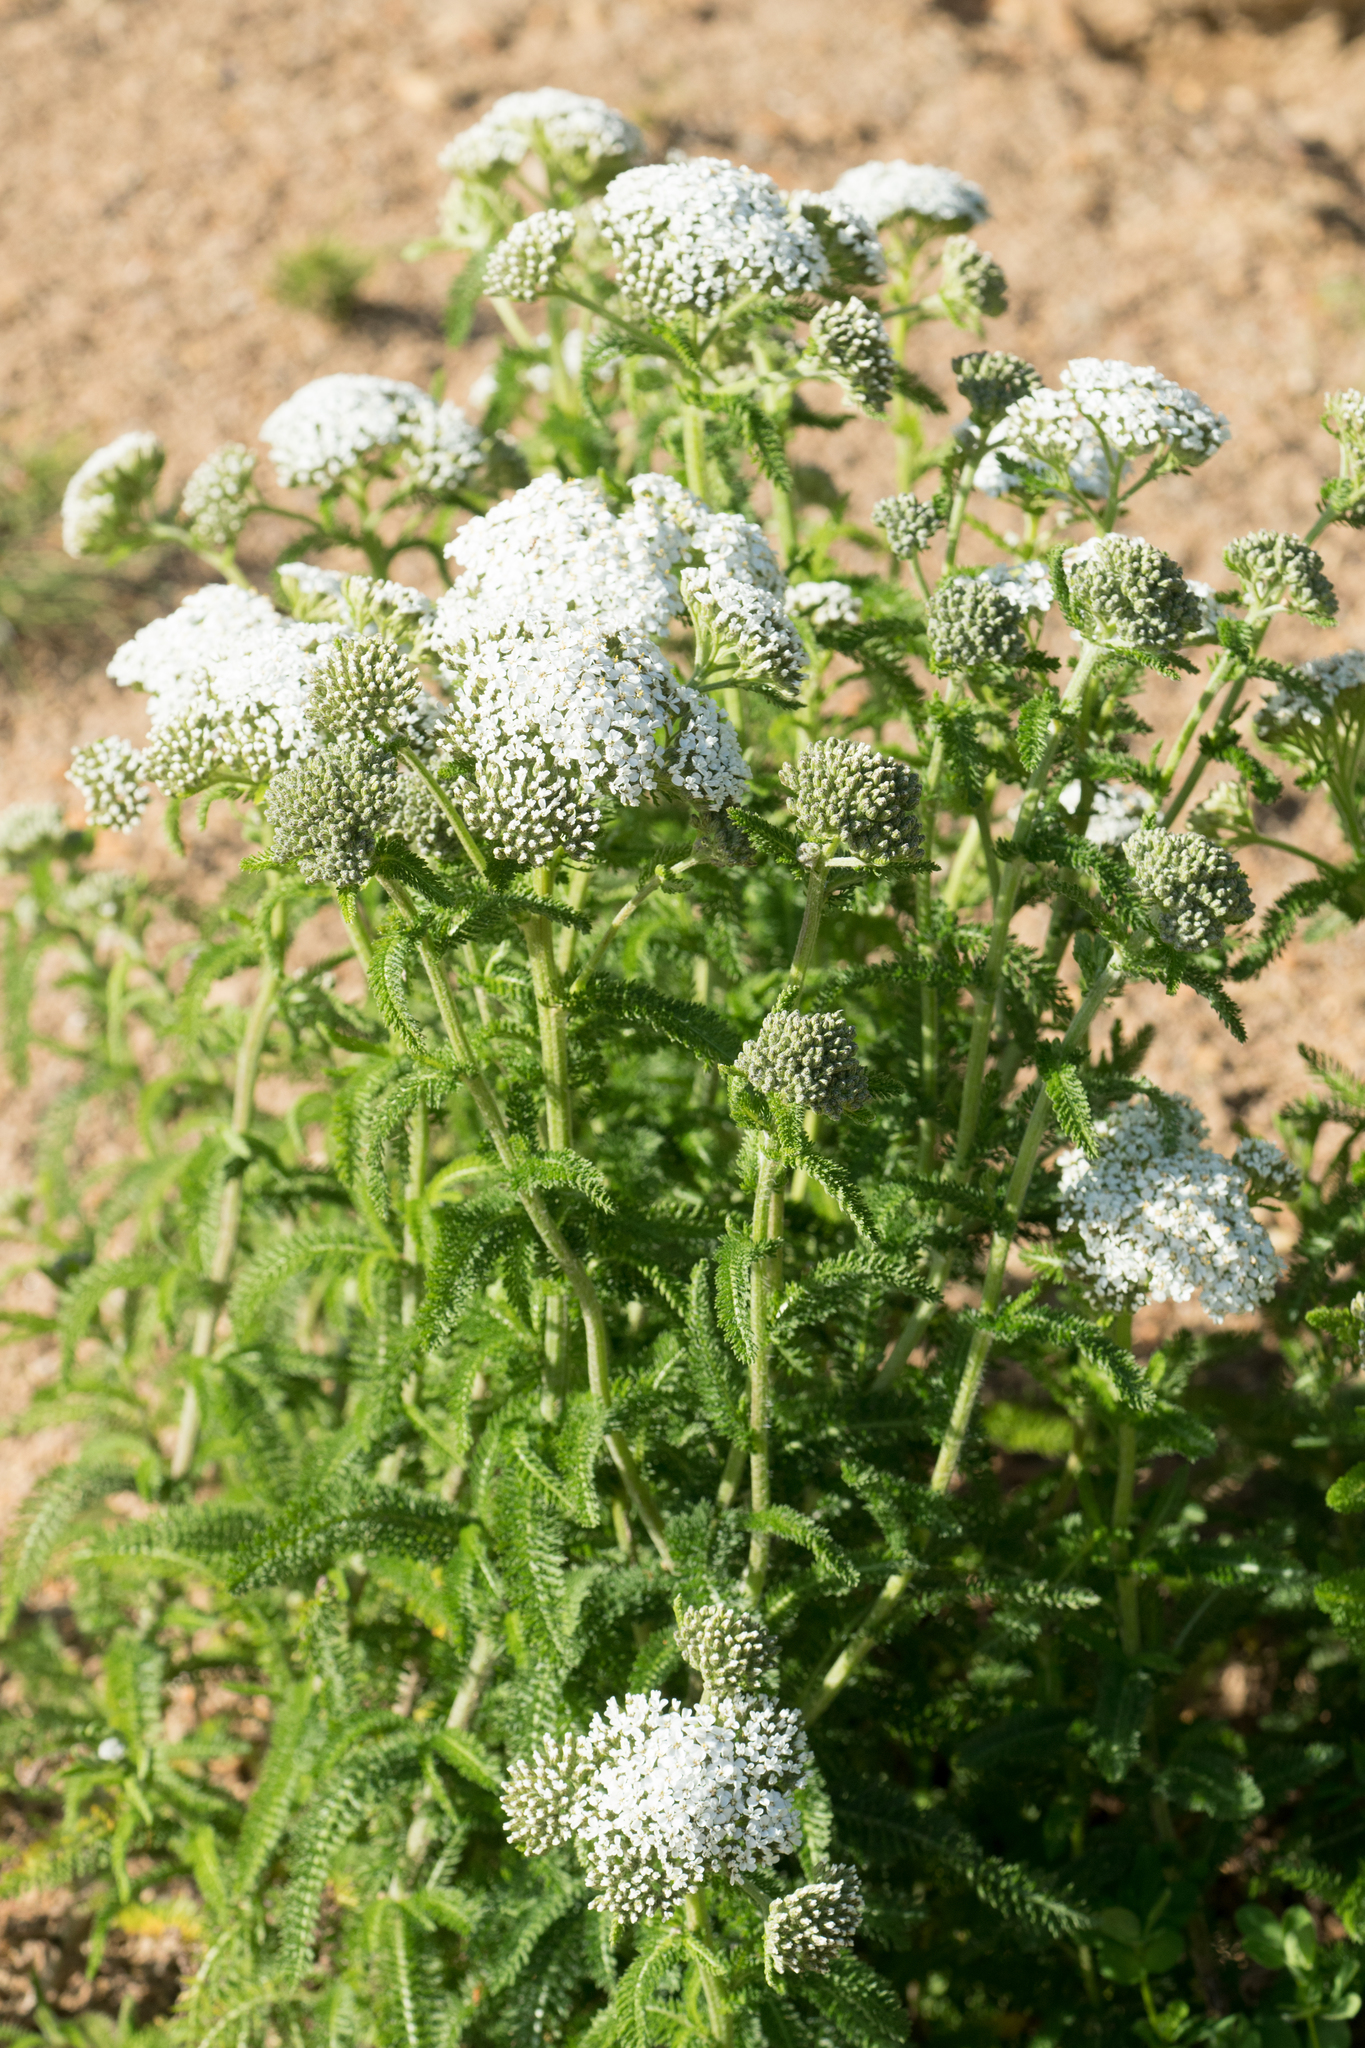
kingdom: Plantae
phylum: Tracheophyta
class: Magnoliopsida
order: Asterales
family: Asteraceae
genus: Achillea
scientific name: Achillea millefolium
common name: Yarrow
